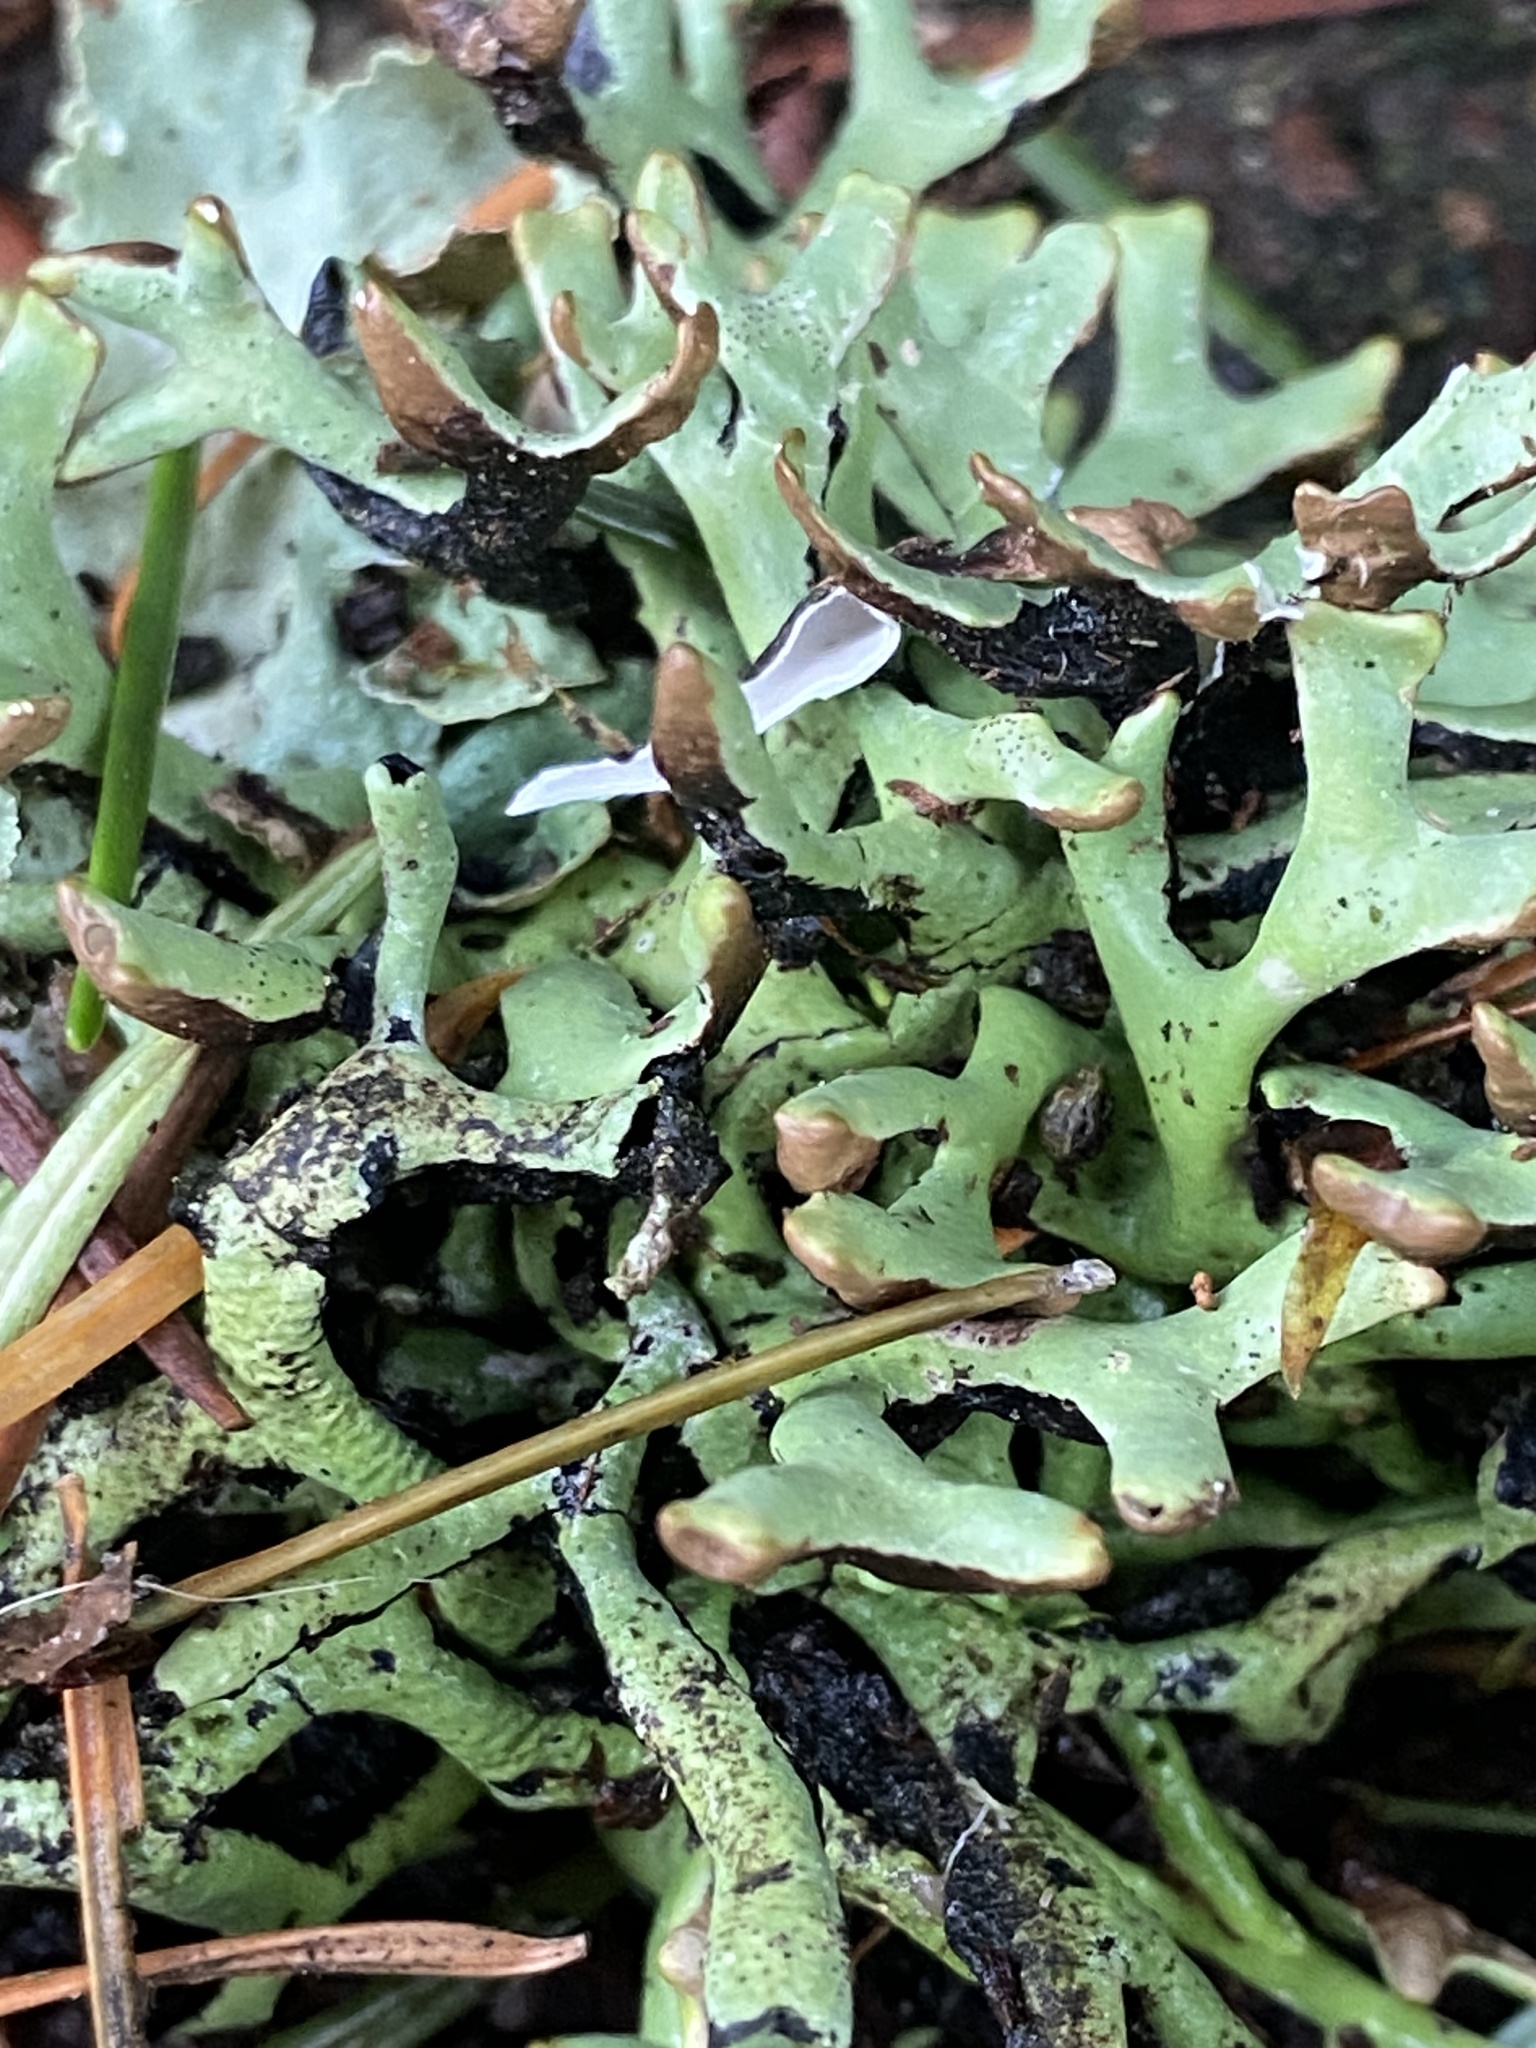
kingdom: Fungi
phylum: Ascomycota
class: Lecanoromycetes
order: Lecanorales
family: Parmeliaceae
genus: Hypogymnia
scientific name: Hypogymnia imshaugii
